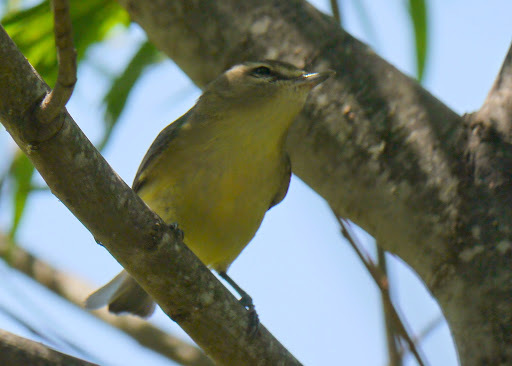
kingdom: Animalia
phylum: Chordata
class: Aves
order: Passeriformes
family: Vireonidae
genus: Vireo
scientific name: Vireo philadelphicus
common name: Philadelphia vireo
